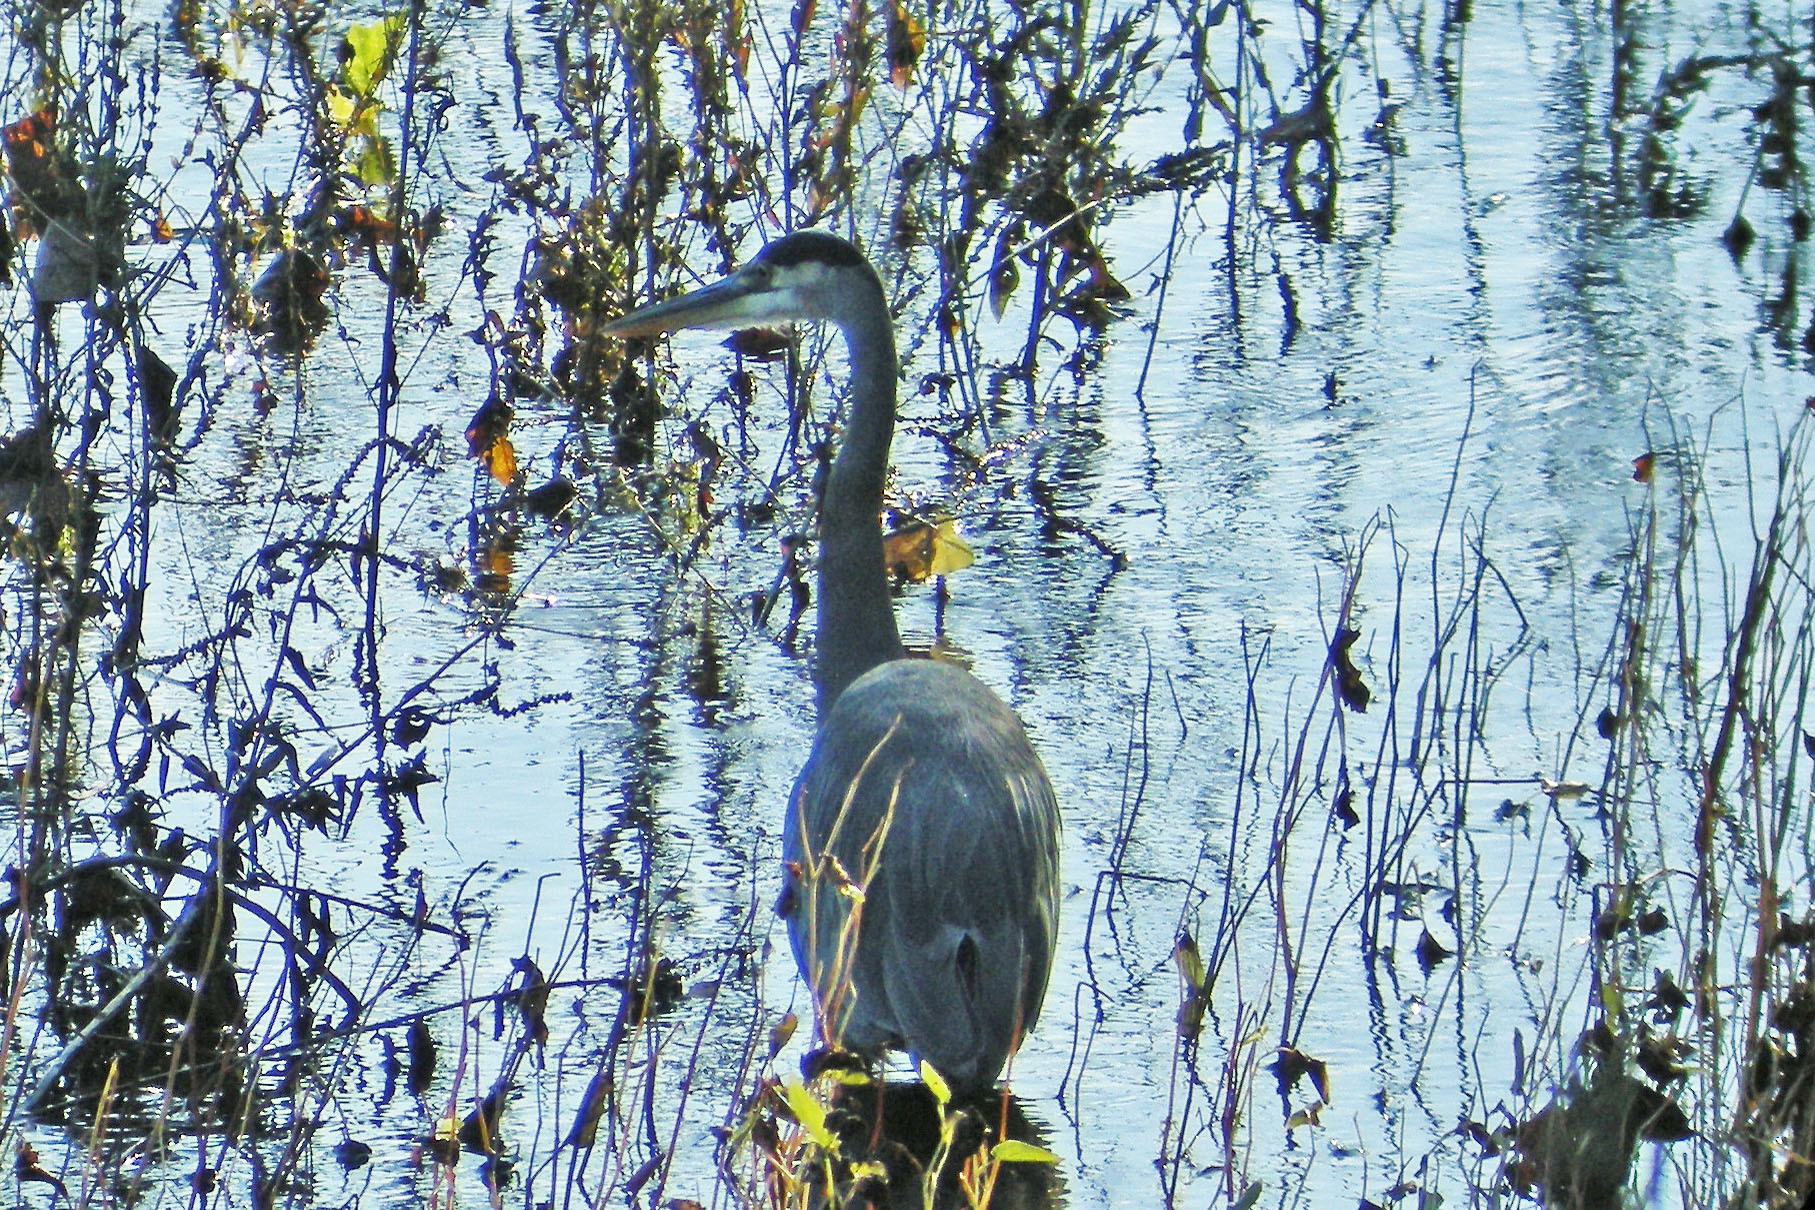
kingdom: Animalia
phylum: Chordata
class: Aves
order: Pelecaniformes
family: Ardeidae
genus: Ardea
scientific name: Ardea herodias
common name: Great blue heron
